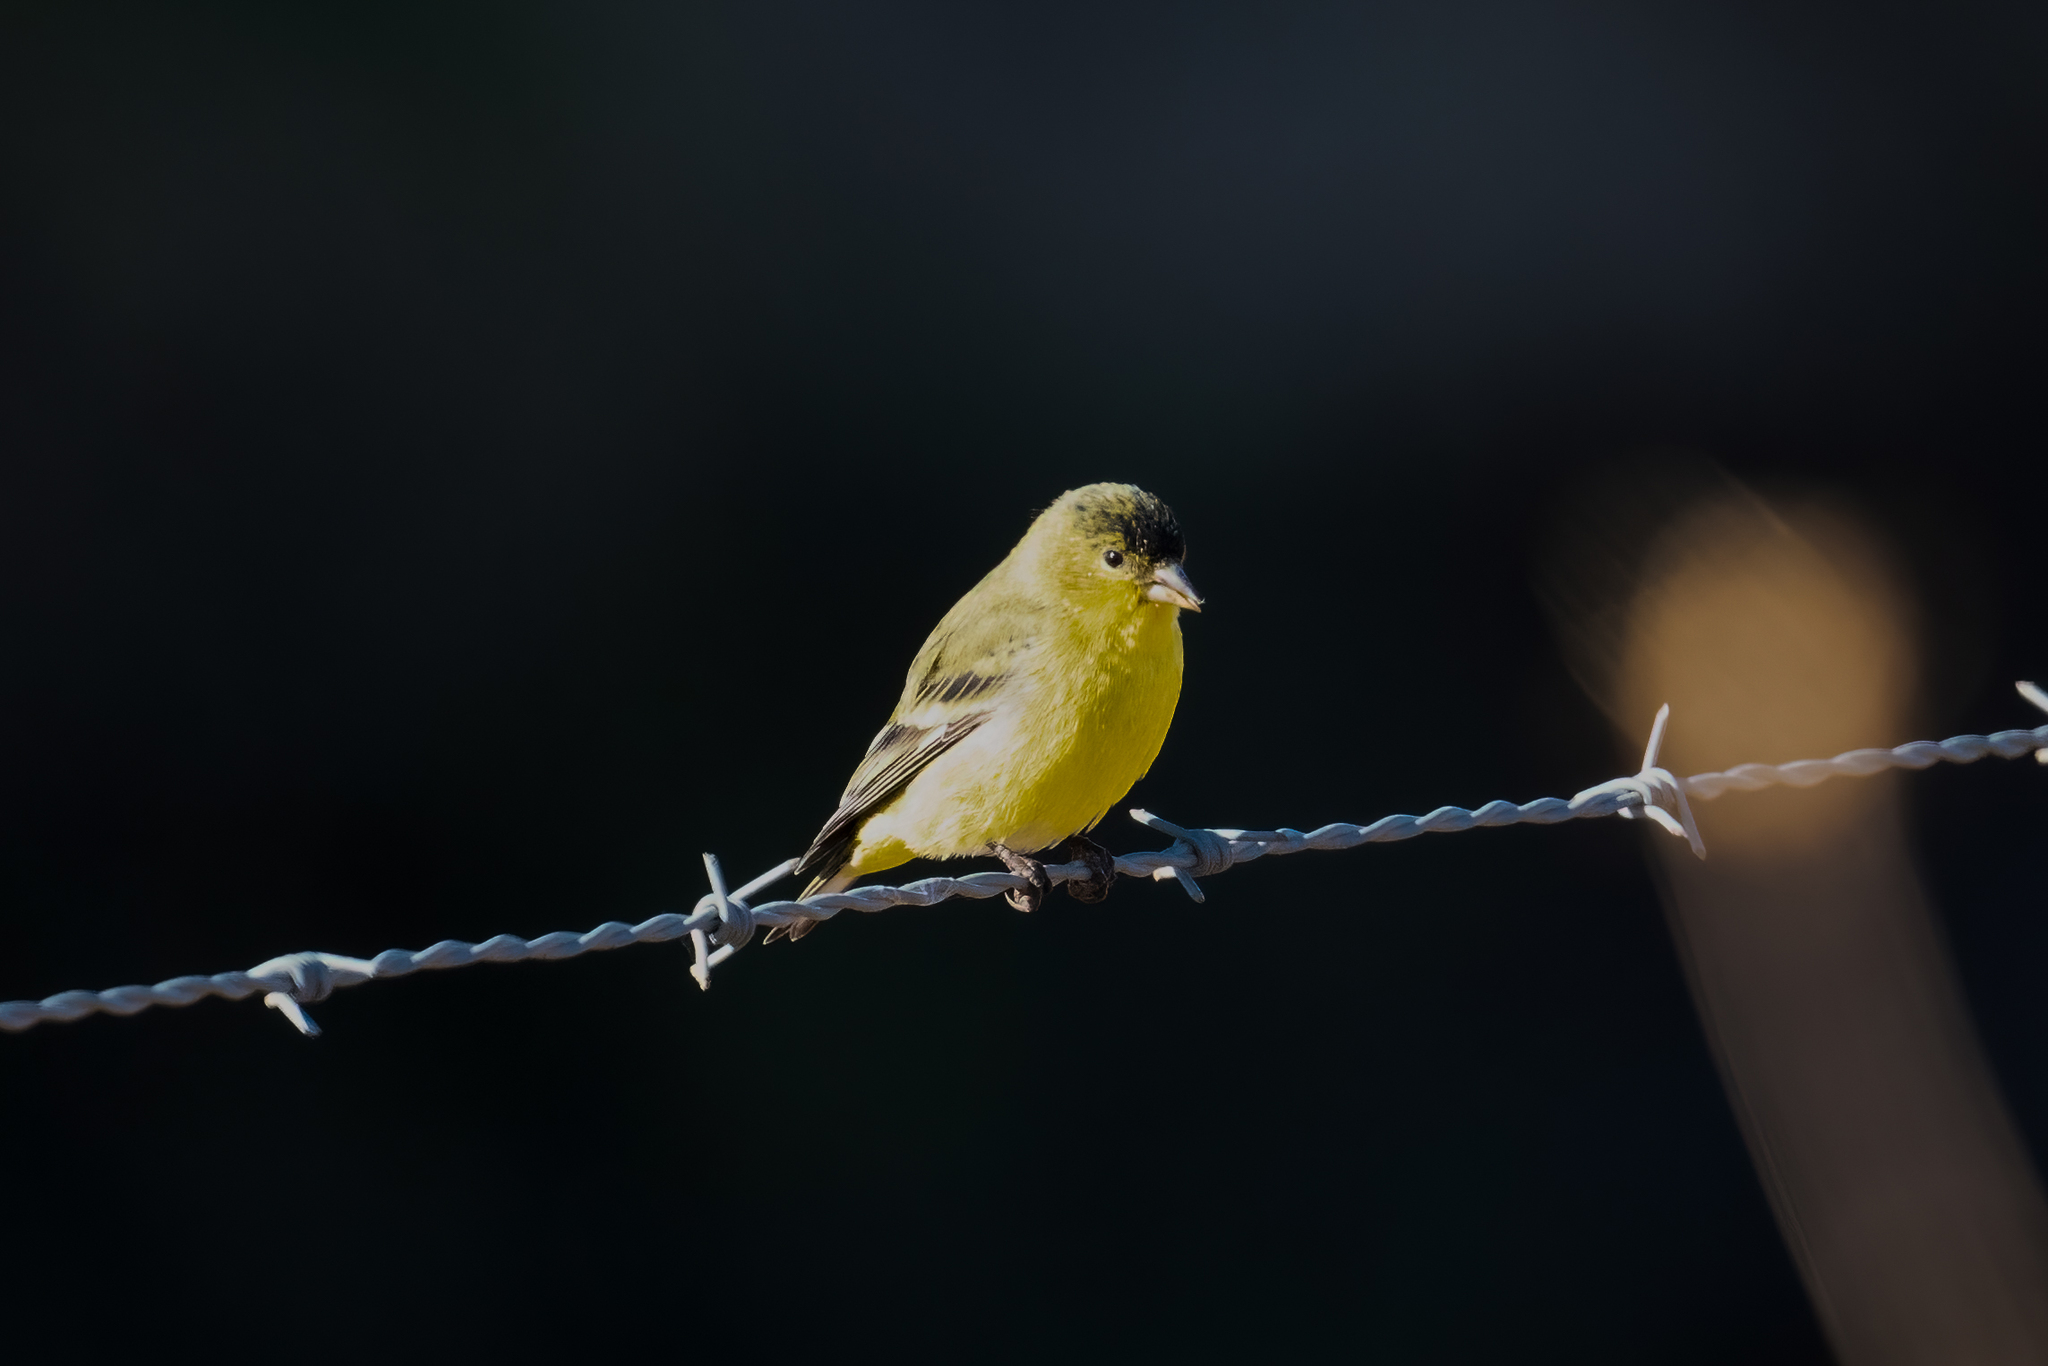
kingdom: Animalia
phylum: Chordata
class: Aves
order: Passeriformes
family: Fringillidae
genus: Spinus
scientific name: Spinus psaltria
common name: Lesser goldfinch
